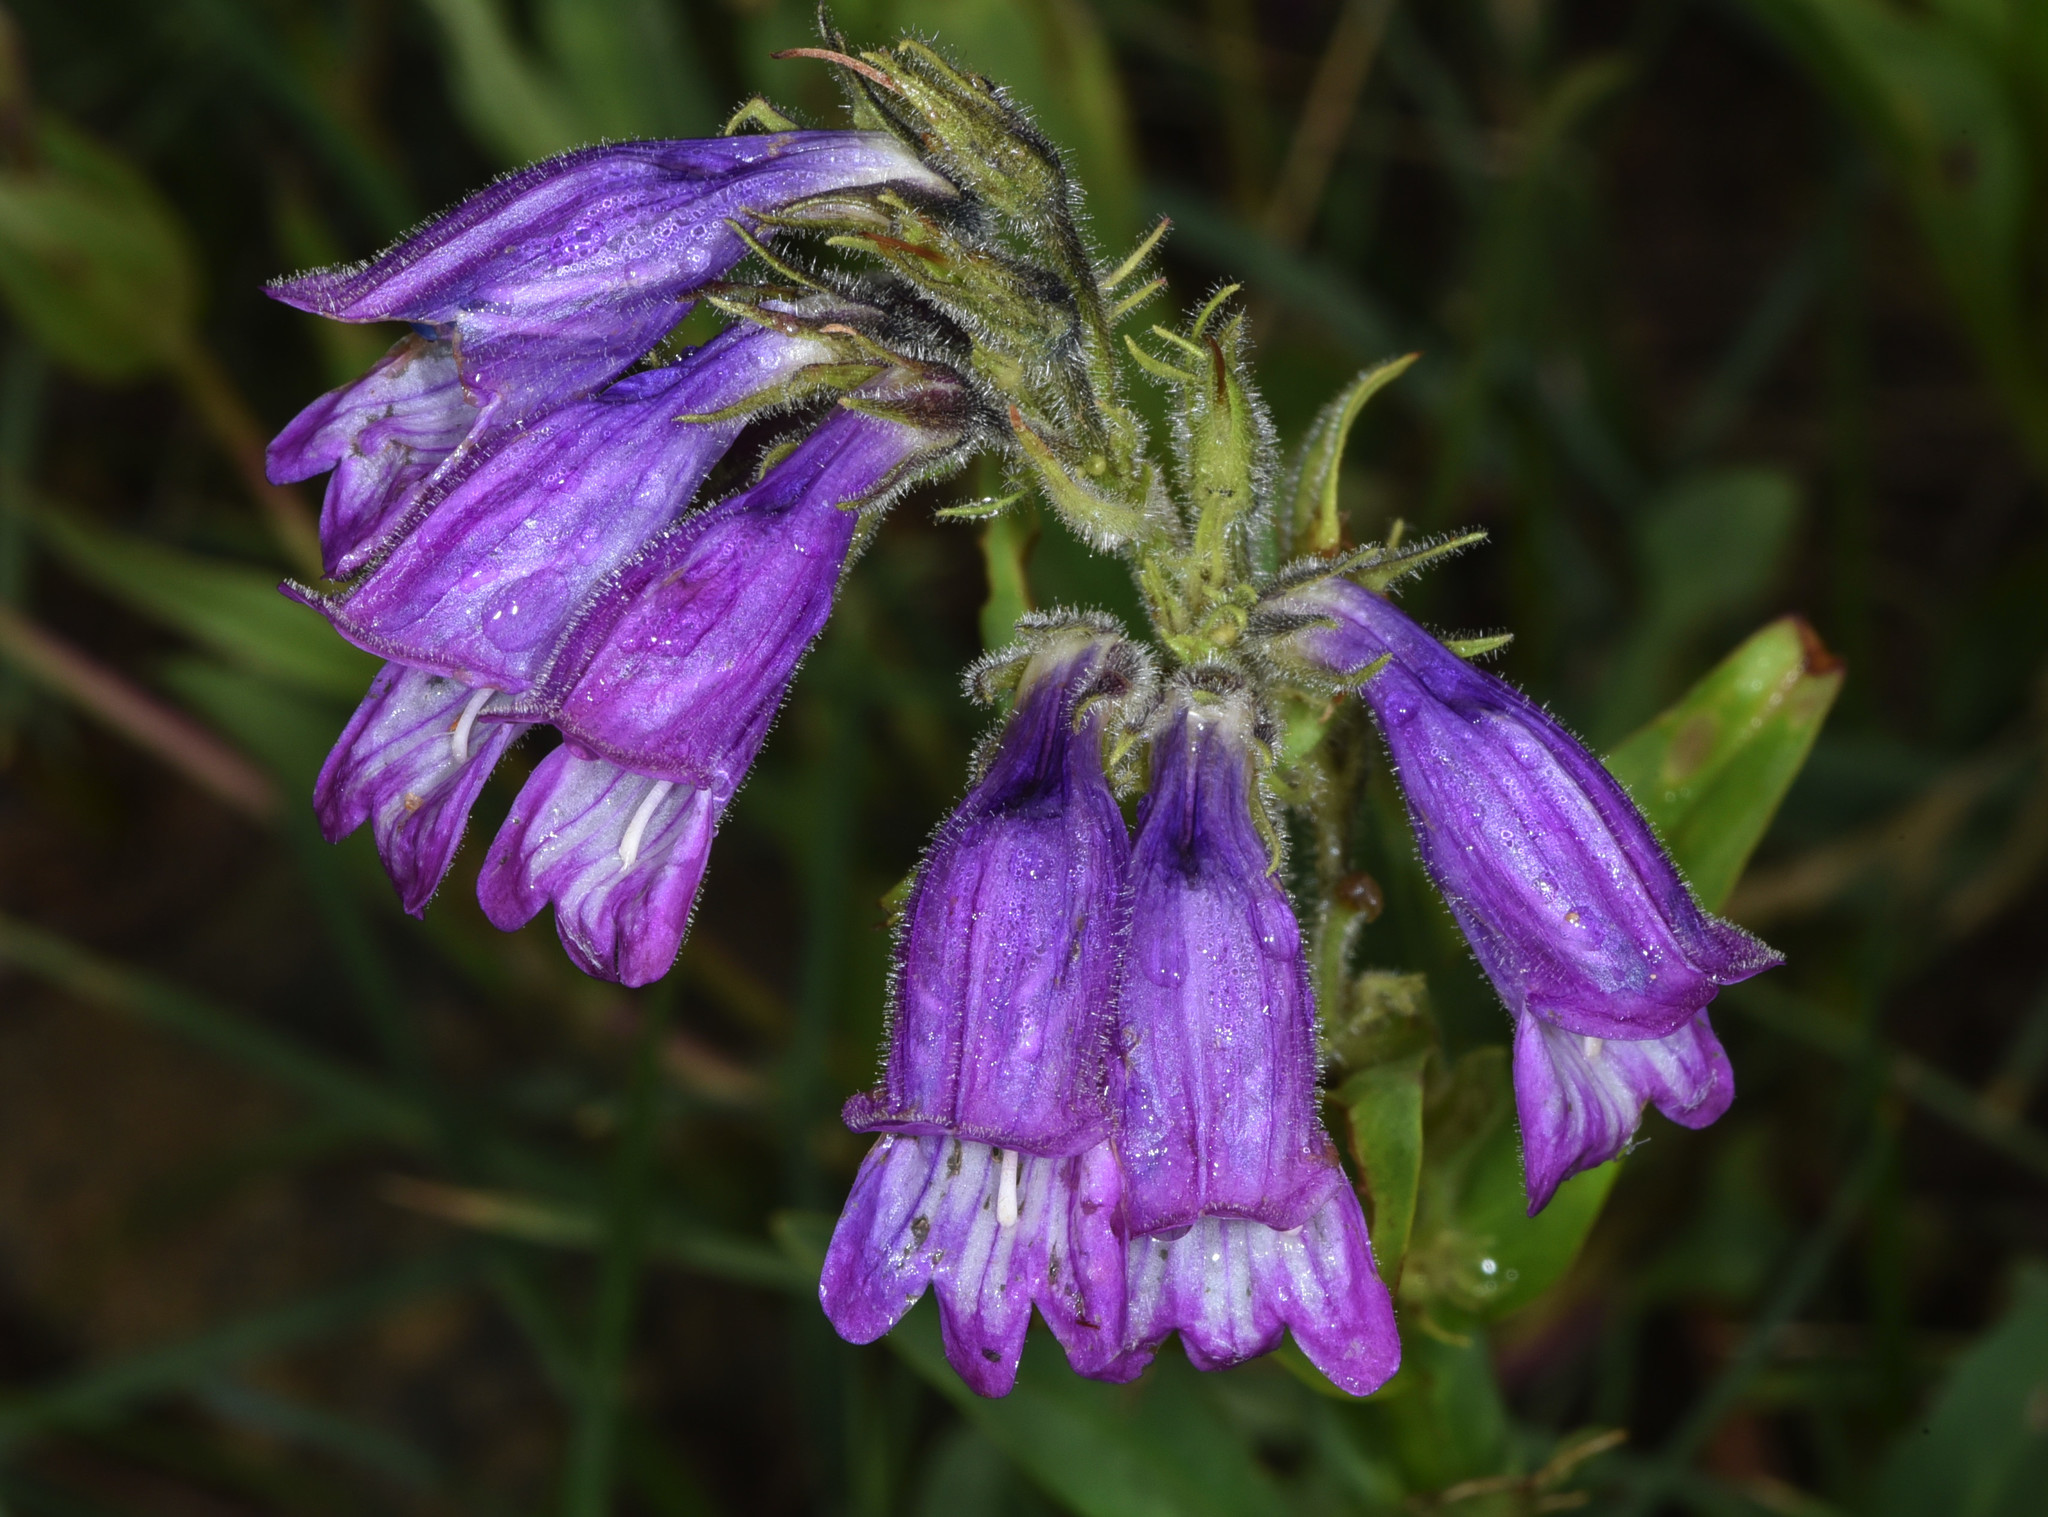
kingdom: Plantae
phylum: Tracheophyta
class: Magnoliopsida
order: Lamiales
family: Plantaginaceae
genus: Penstemon
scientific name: Penstemon whippleanus
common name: Whipple's penstemon
